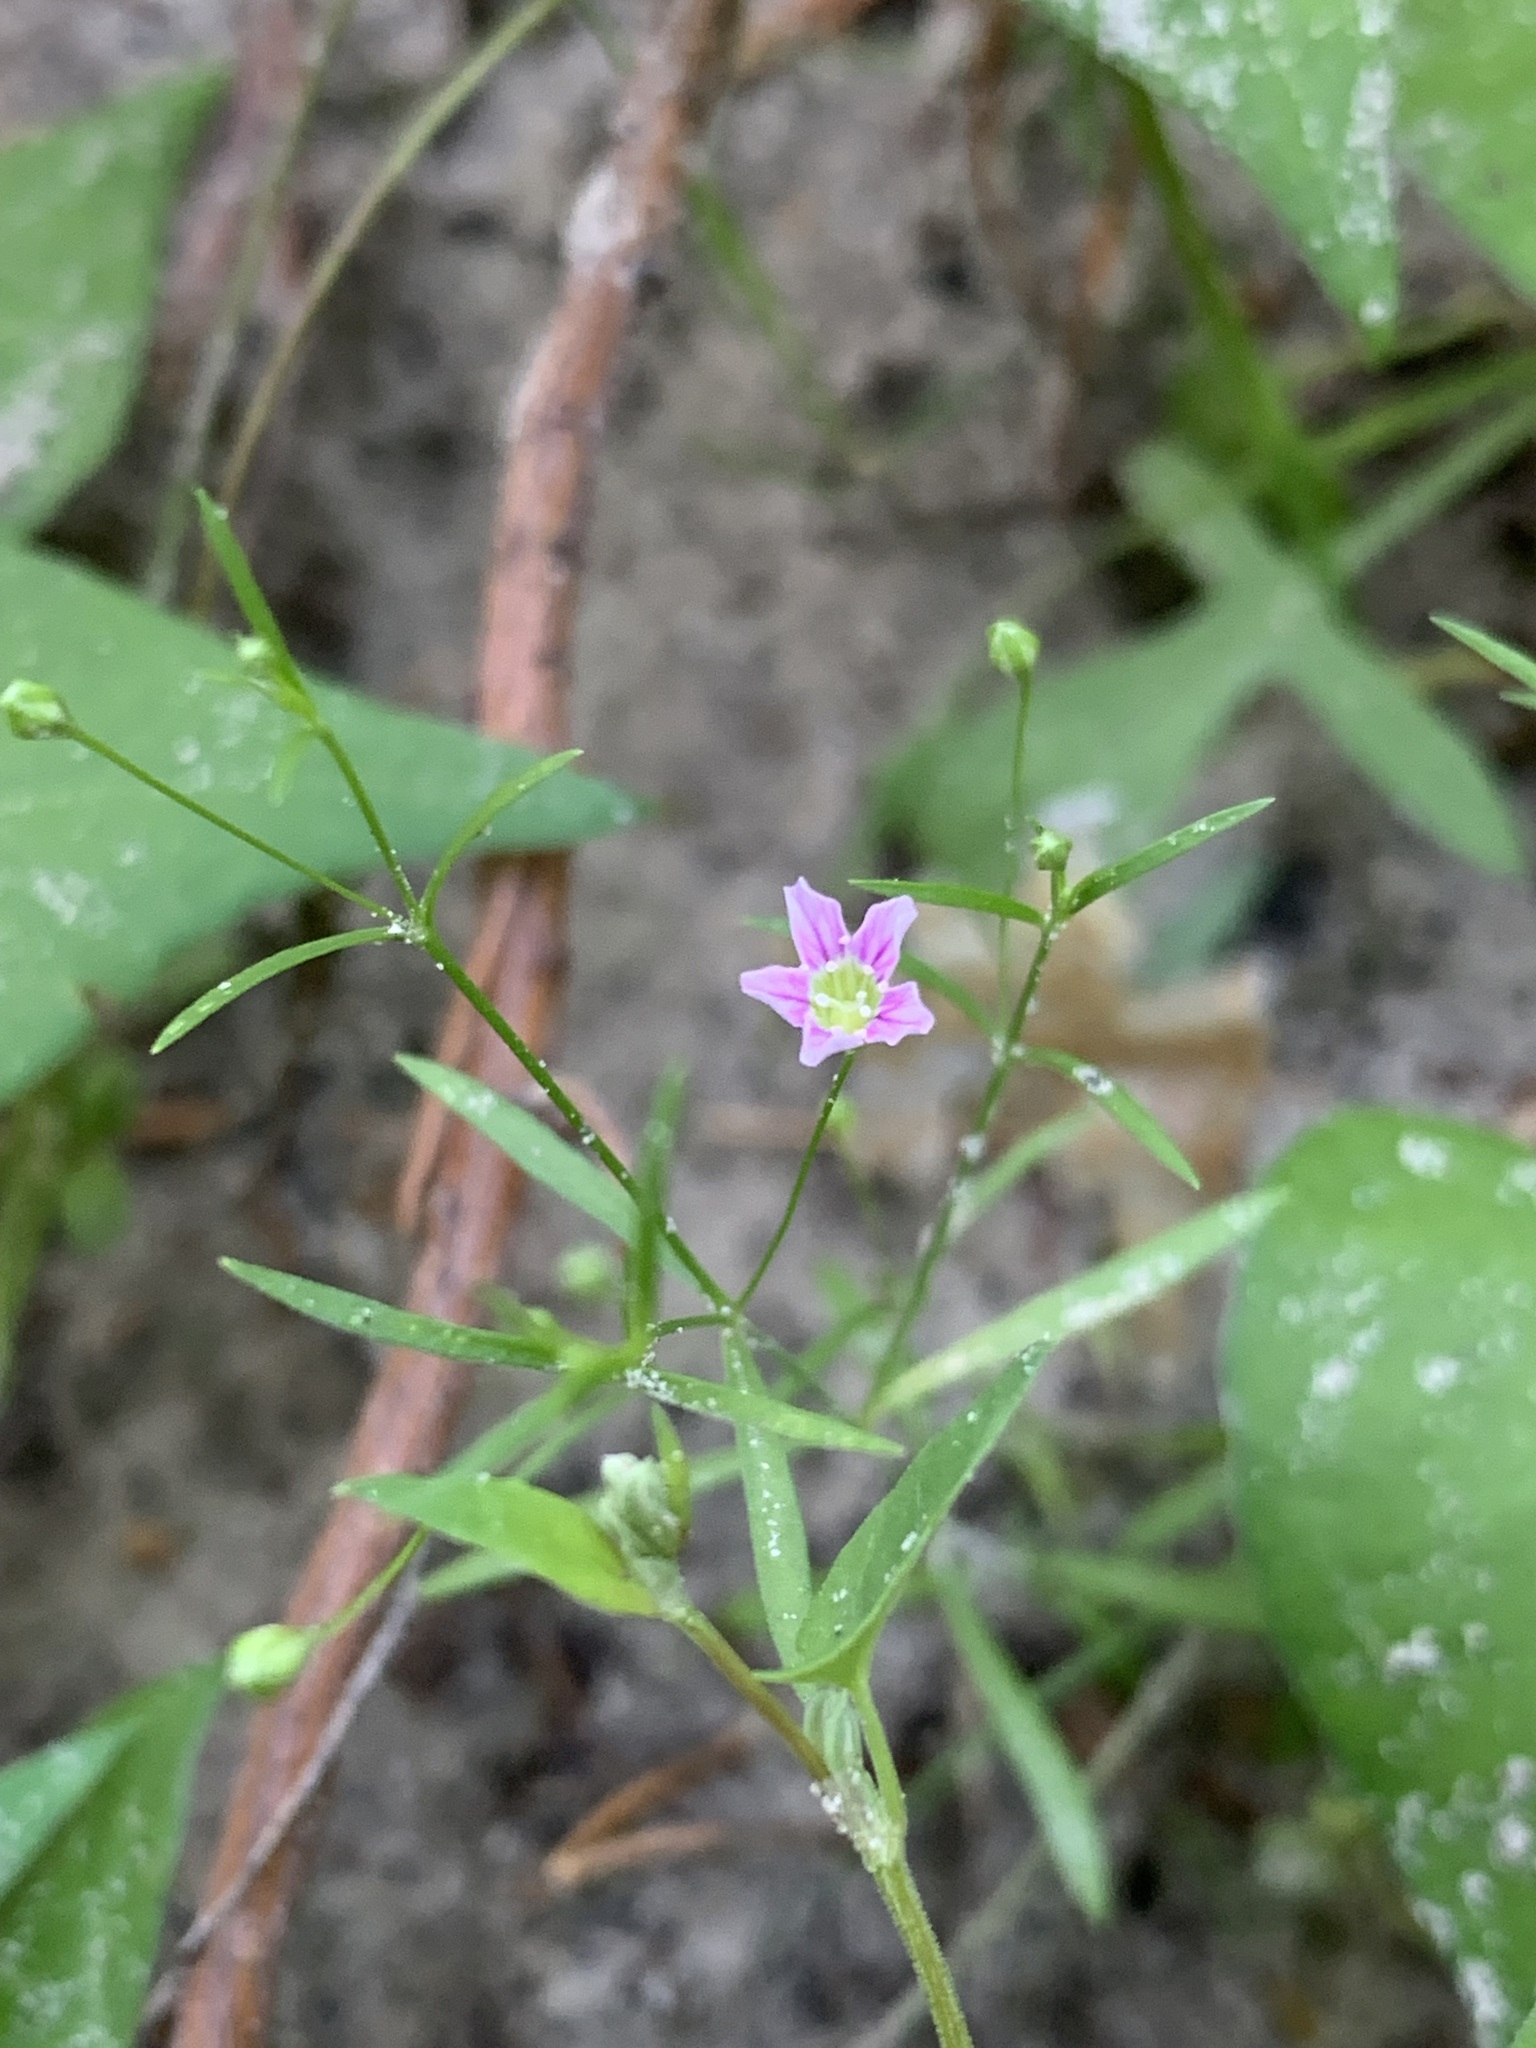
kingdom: Plantae
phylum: Tracheophyta
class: Magnoliopsida
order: Caryophyllales
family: Caryophyllaceae
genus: Psammophiliella
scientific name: Psammophiliella muralis
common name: Cushion baby's-breath
